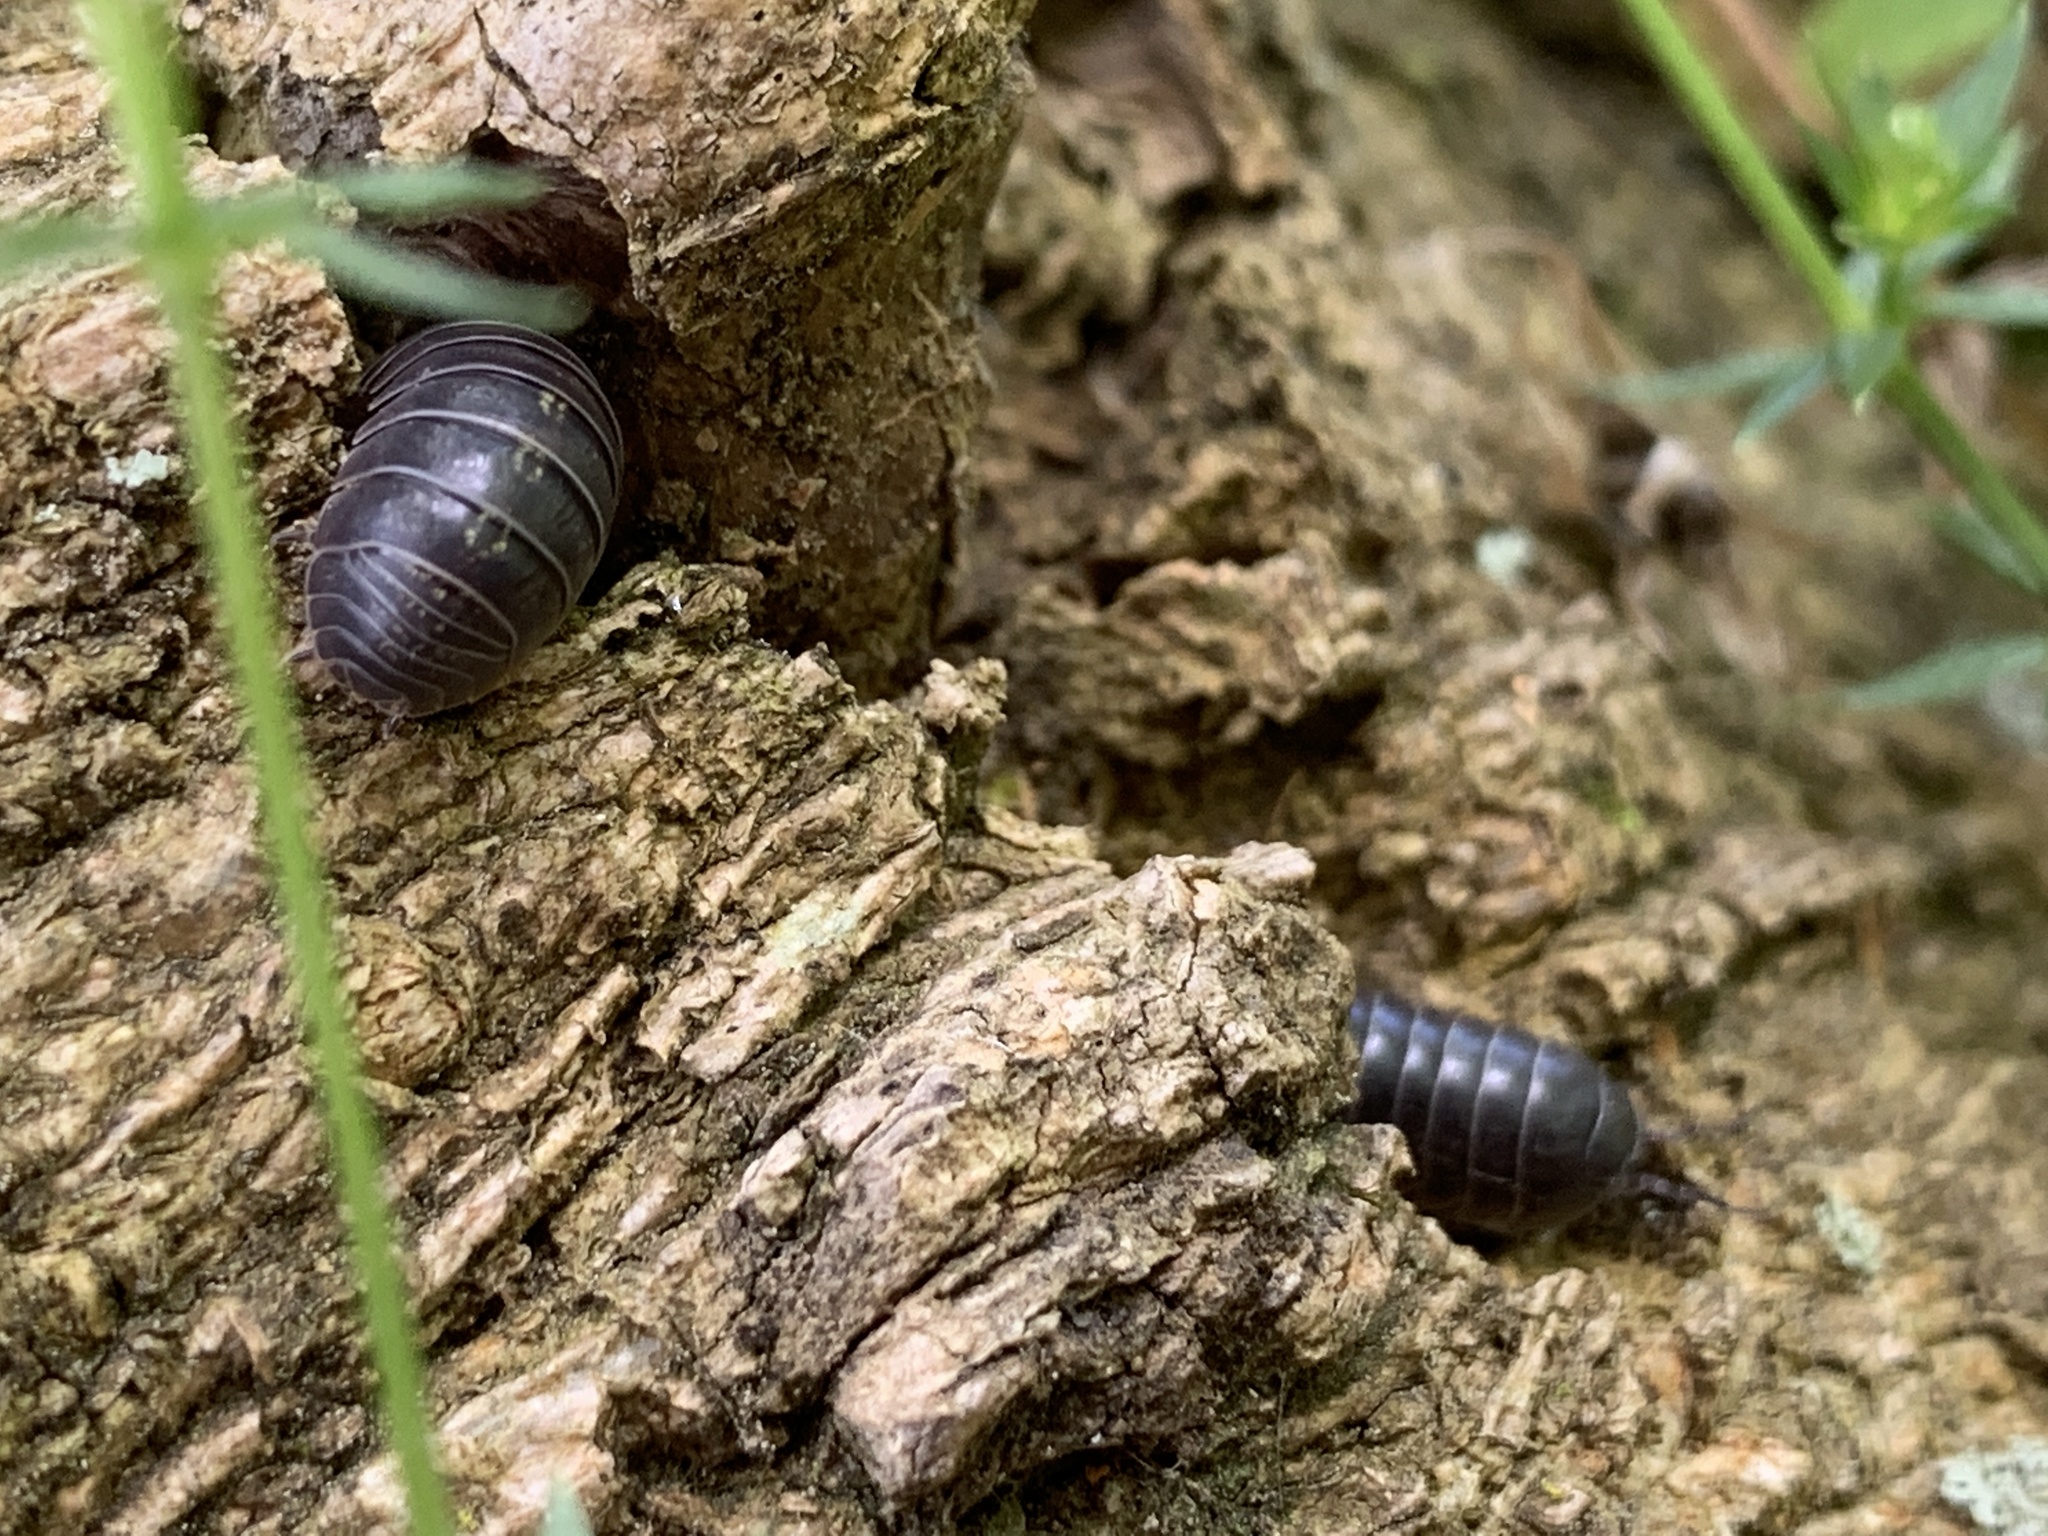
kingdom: Animalia
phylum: Arthropoda
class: Malacostraca
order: Isopoda
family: Armadillidiidae
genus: Armadillidium
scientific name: Armadillidium vulgare
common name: Common pill woodlouse
